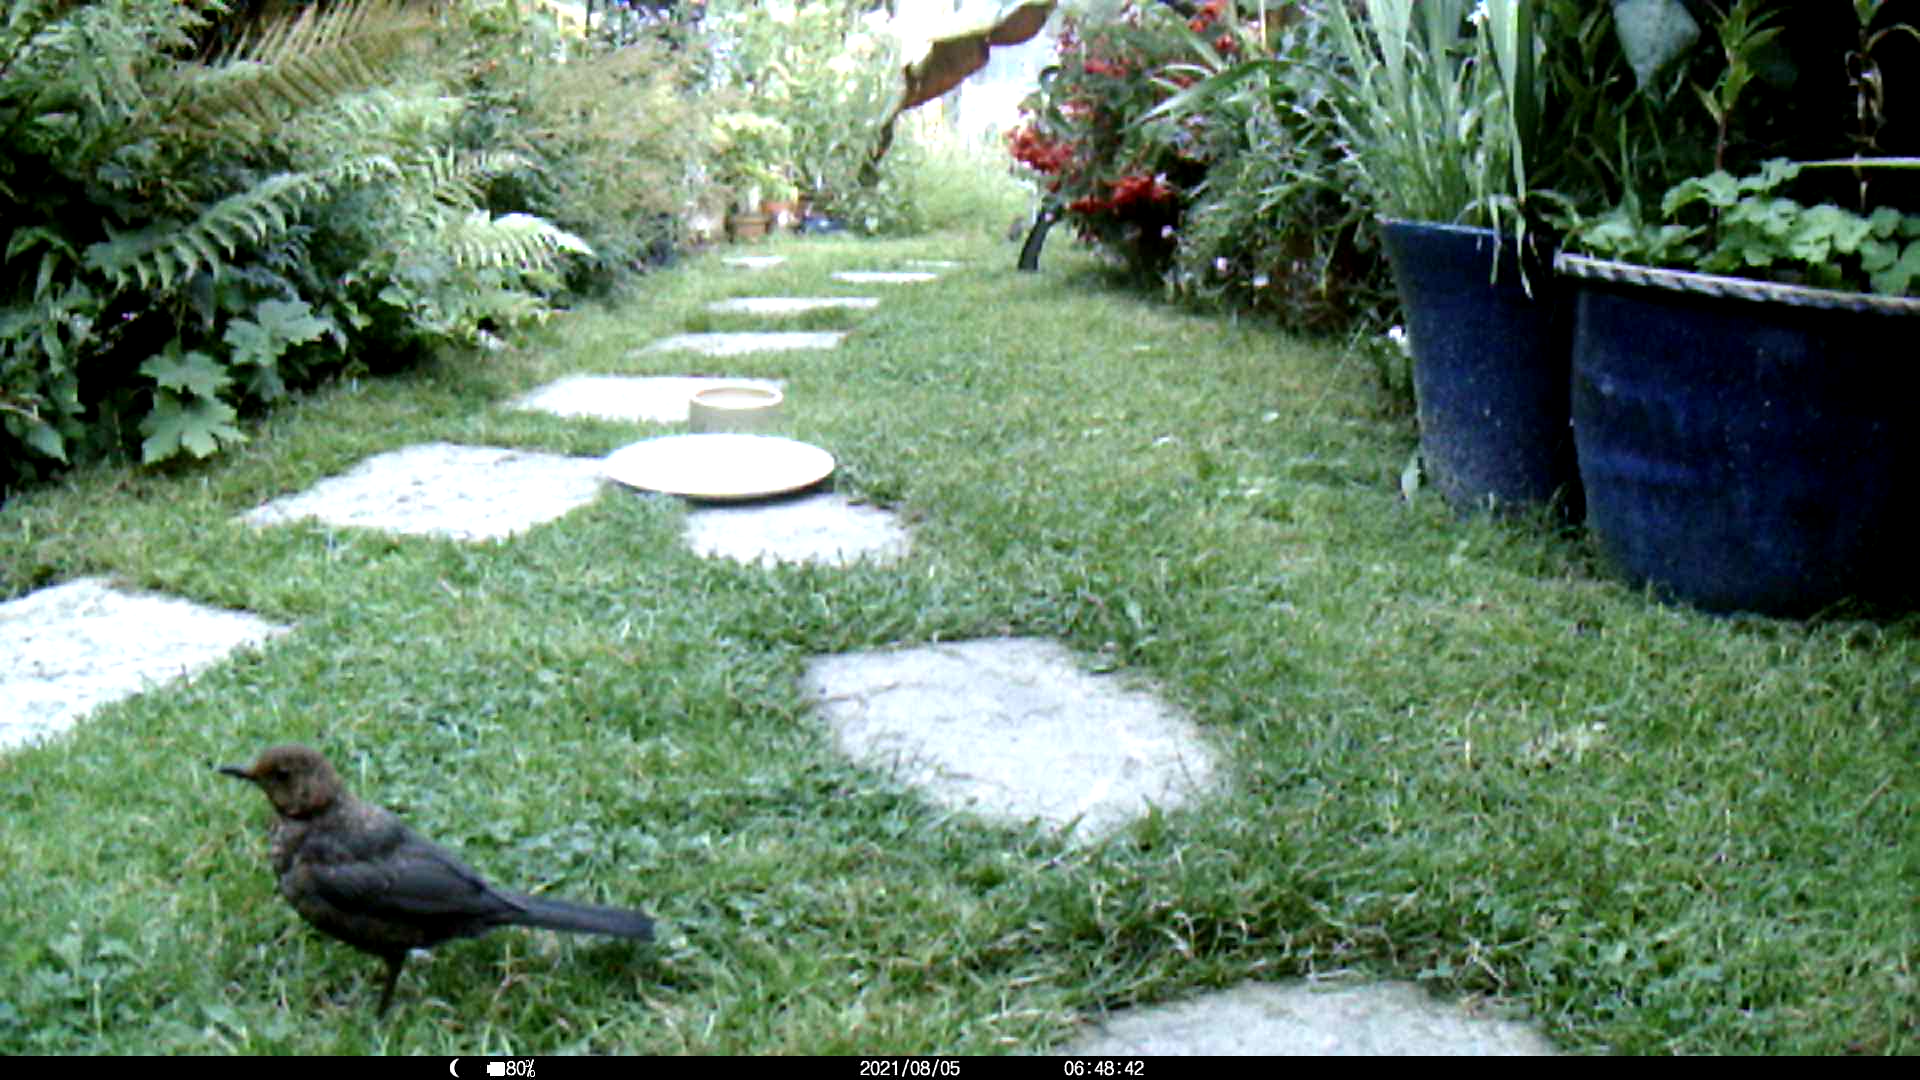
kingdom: Animalia
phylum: Chordata
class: Aves
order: Passeriformes
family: Turdidae
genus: Turdus
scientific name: Turdus merula
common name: Common blackbird
